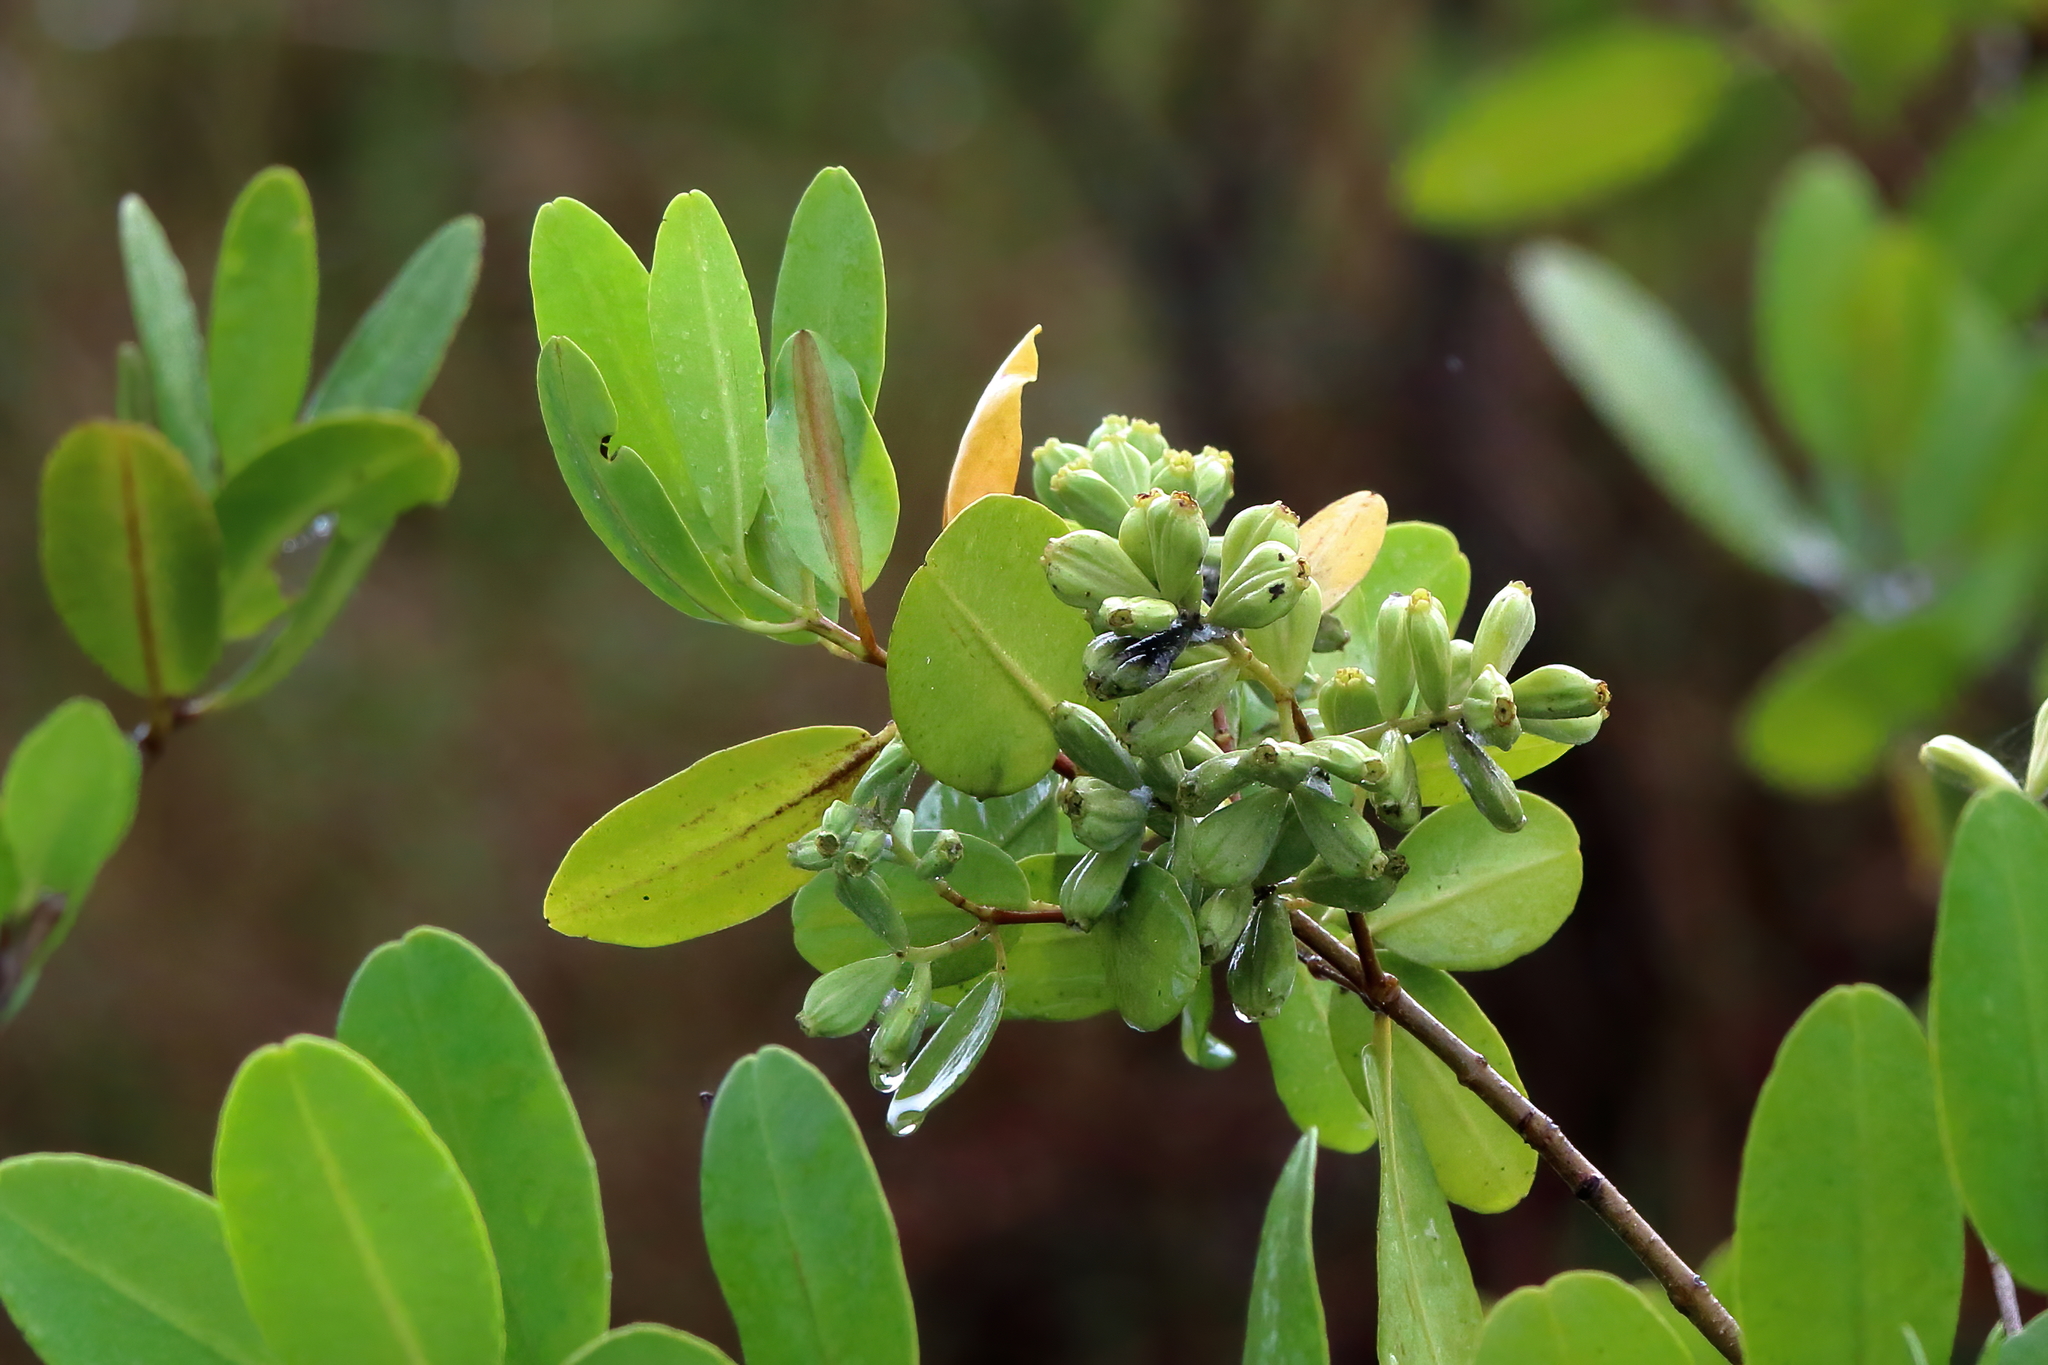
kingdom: Plantae
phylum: Tracheophyta
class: Magnoliopsida
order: Myrtales
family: Combretaceae
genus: Laguncularia
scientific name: Laguncularia racemosa
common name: White mangrove
